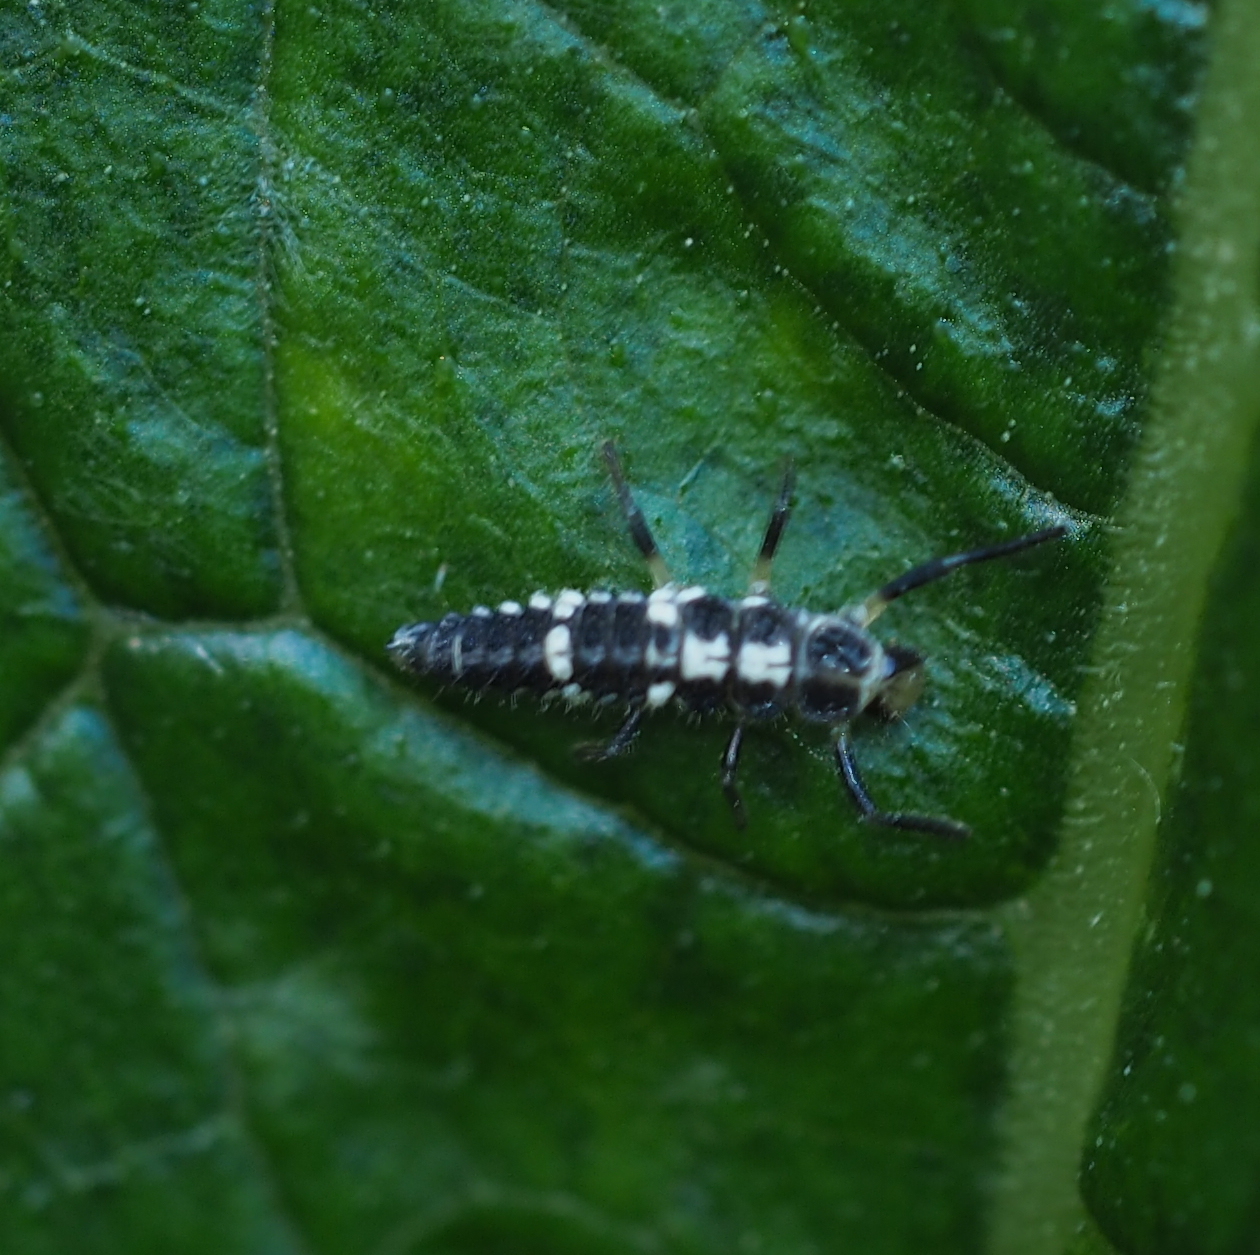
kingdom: Animalia
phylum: Arthropoda
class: Insecta
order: Coleoptera
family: Coccinellidae
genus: Propylaea
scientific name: Propylaea quatuordecimpunctata
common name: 14-spotted ladybird beetle
